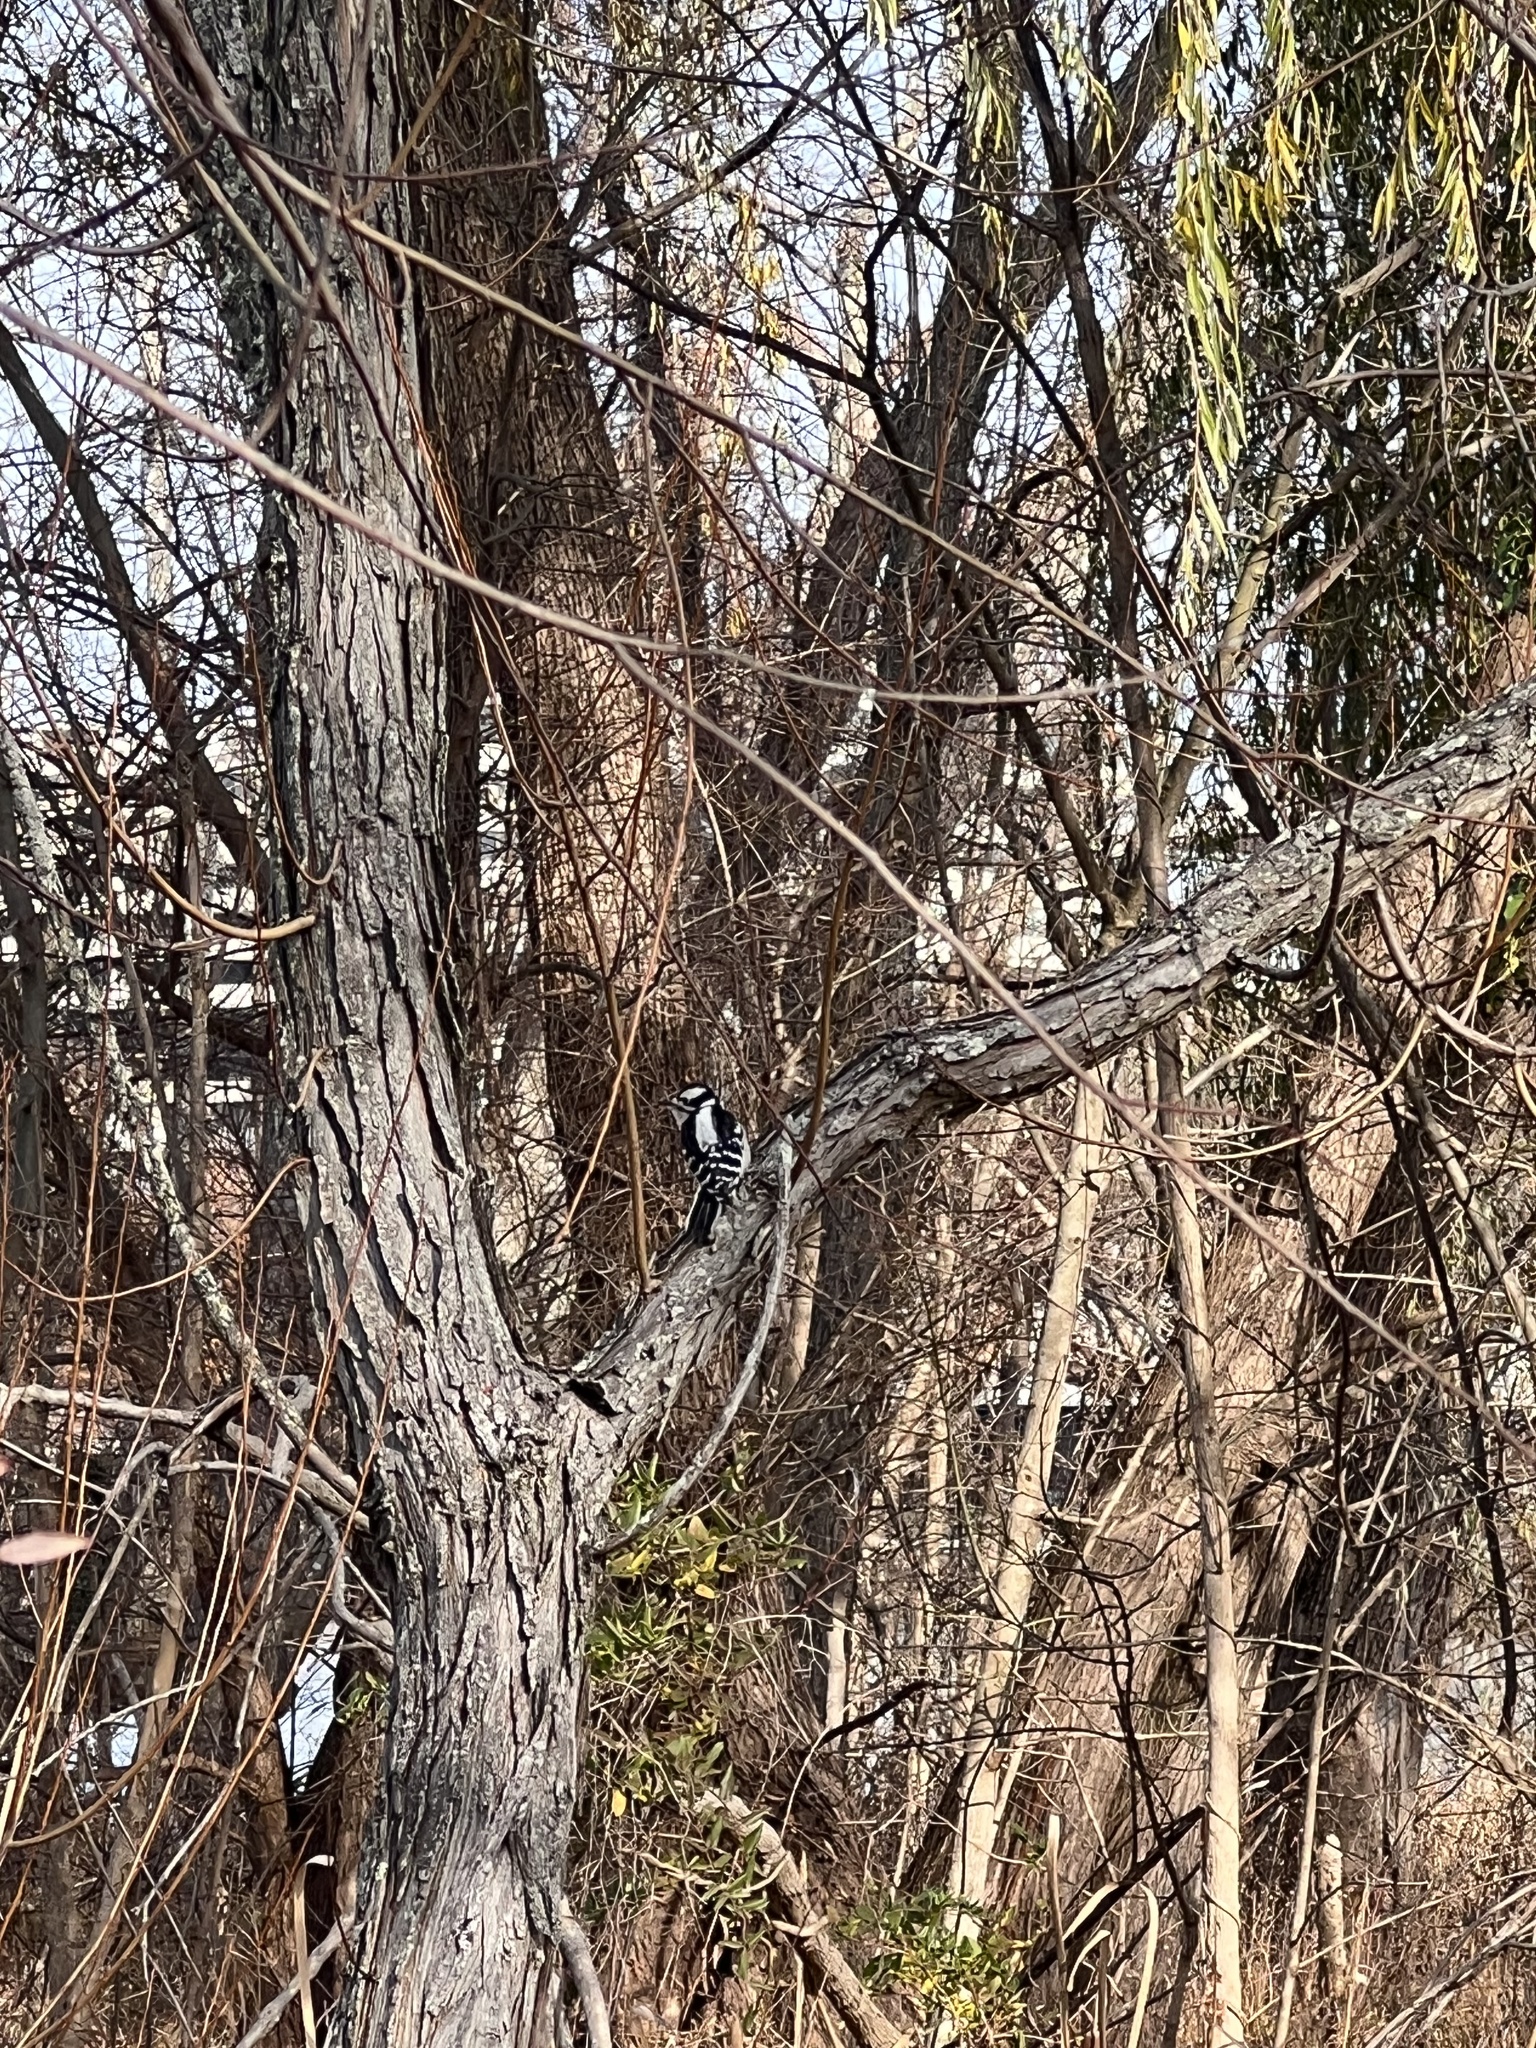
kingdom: Animalia
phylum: Chordata
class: Aves
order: Piciformes
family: Picidae
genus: Dryobates
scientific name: Dryobates pubescens
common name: Downy woodpecker
